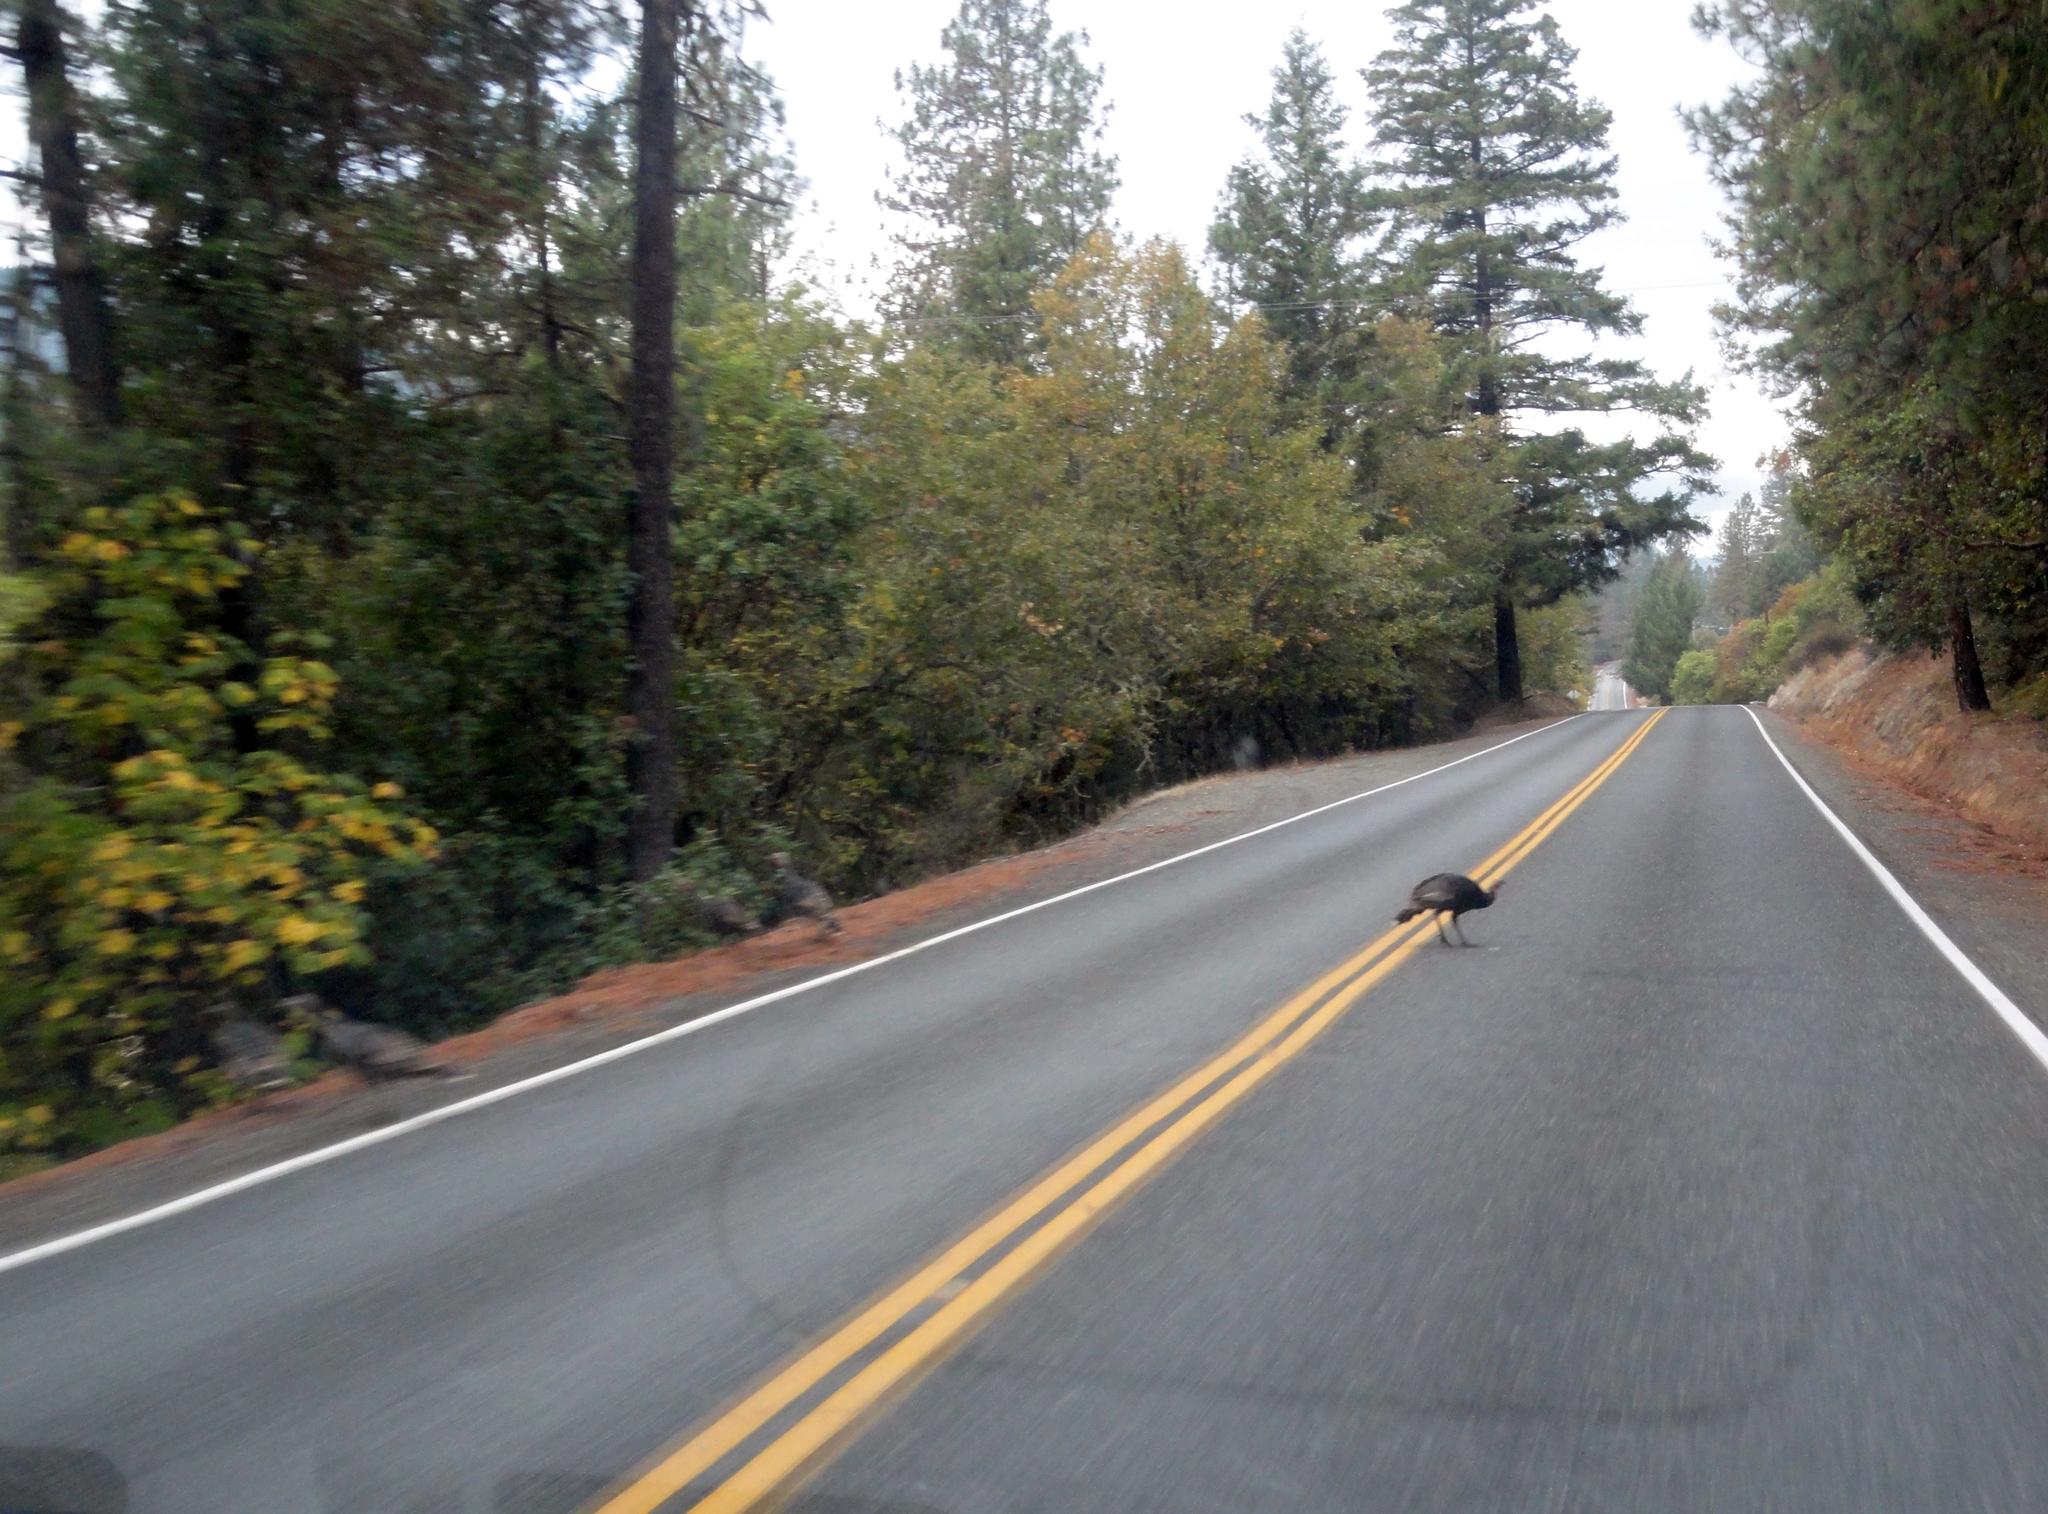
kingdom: Animalia
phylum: Chordata
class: Aves
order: Galliformes
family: Phasianidae
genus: Meleagris
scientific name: Meleagris gallopavo
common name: Wild turkey
